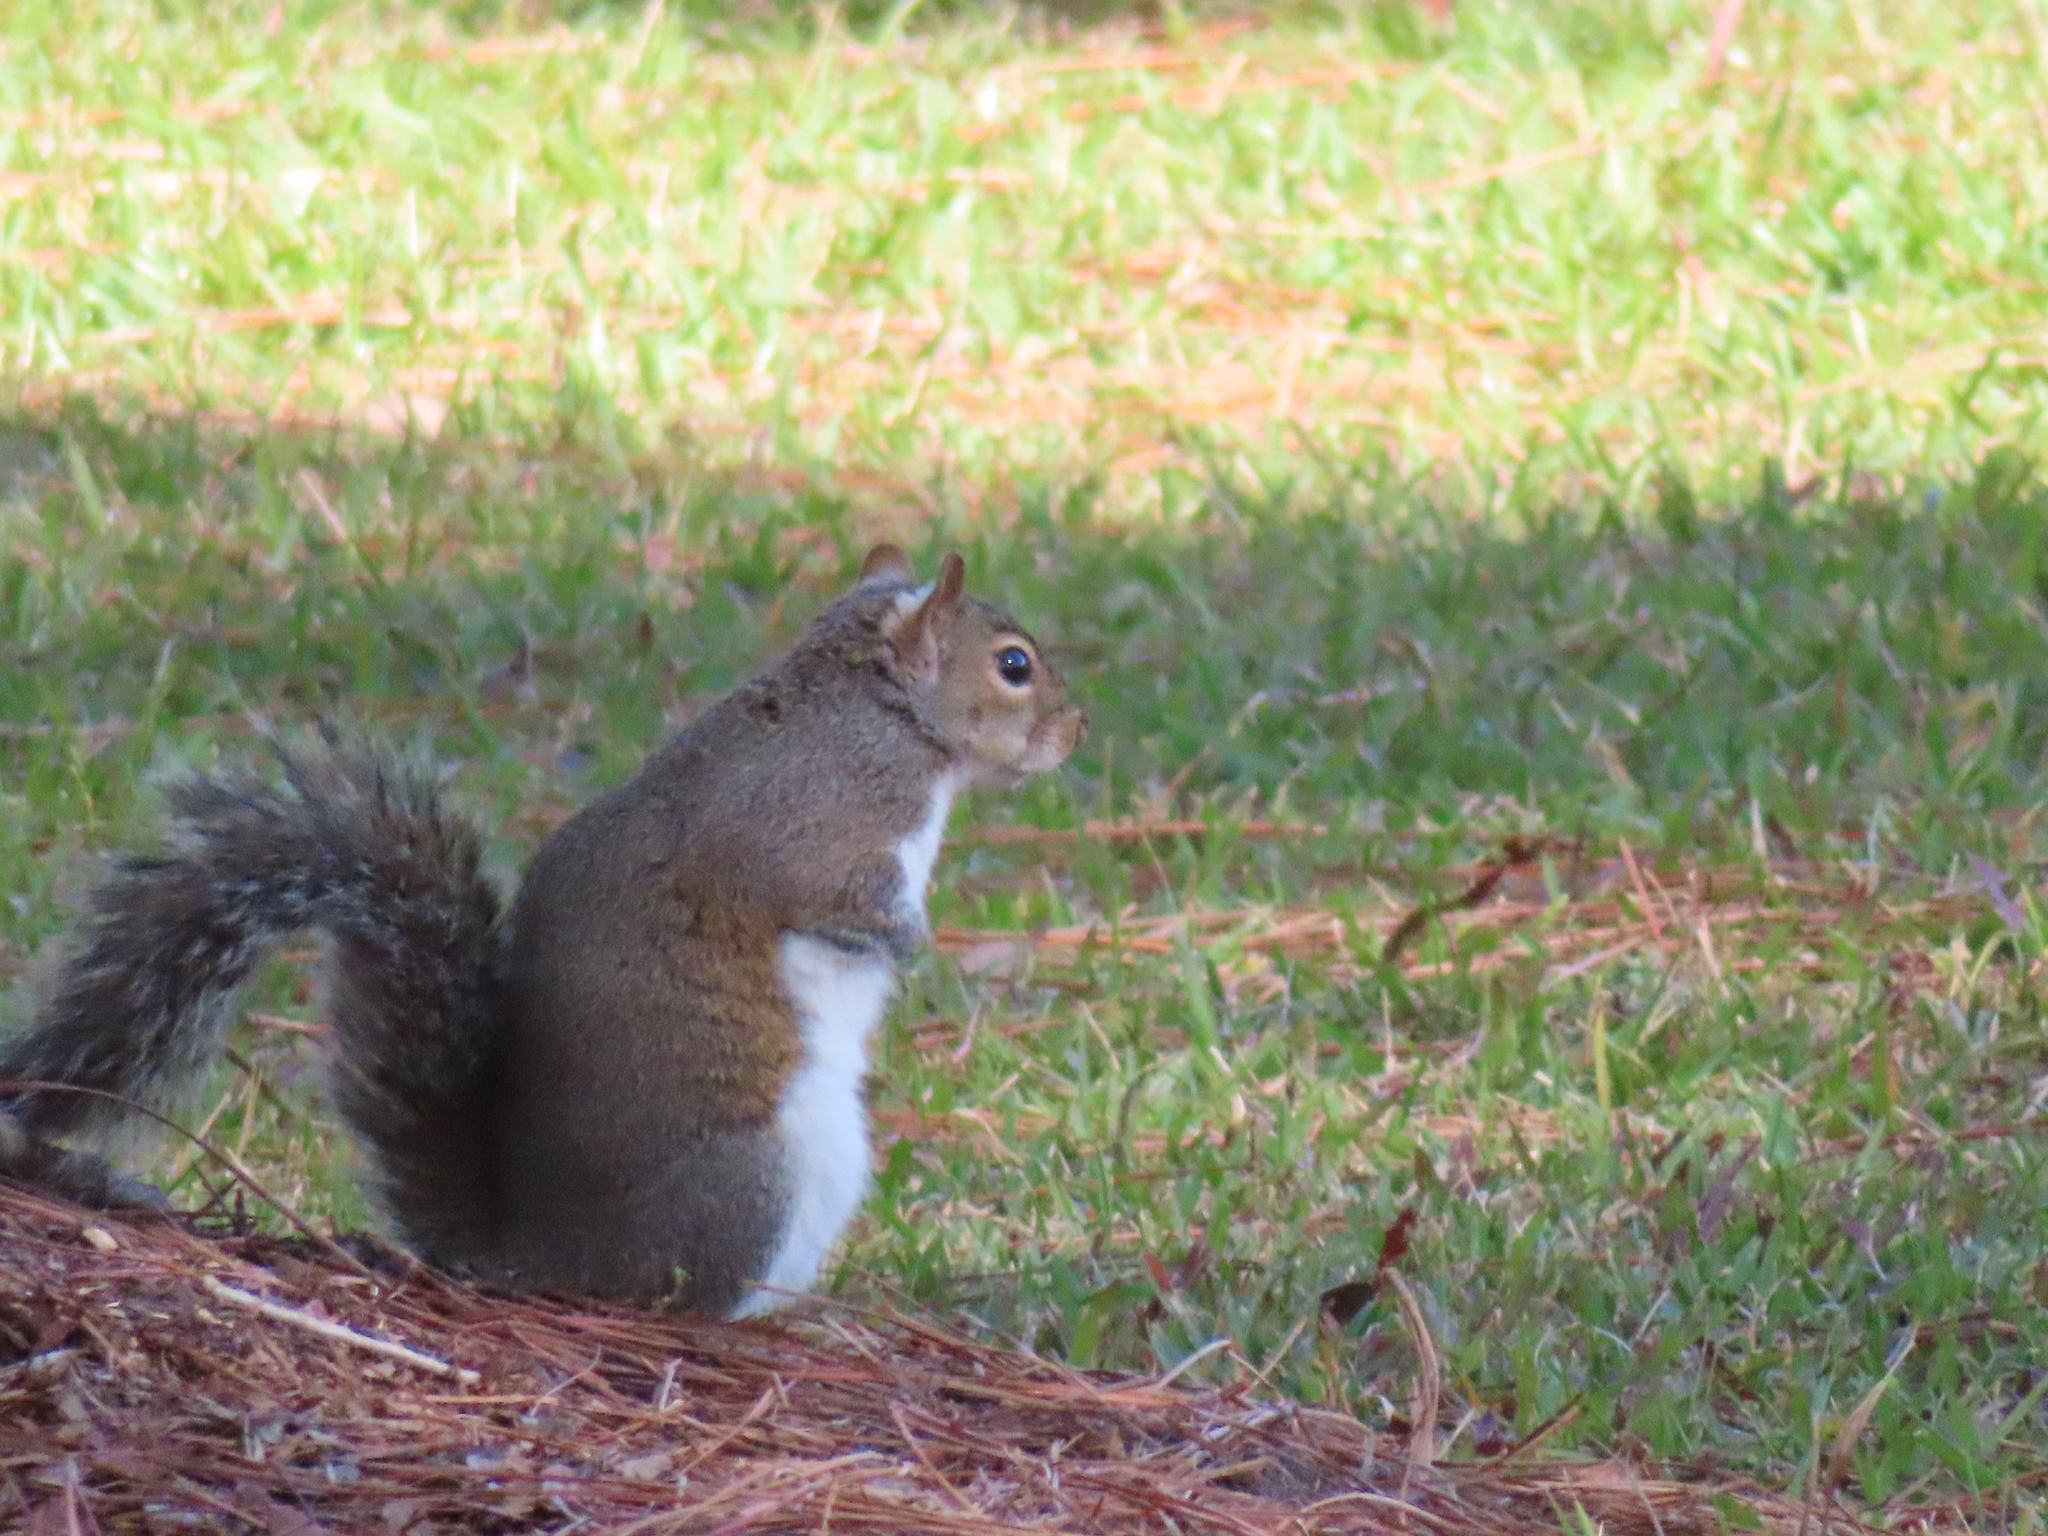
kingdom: Animalia
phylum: Chordata
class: Mammalia
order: Rodentia
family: Sciuridae
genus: Sciurus
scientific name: Sciurus carolinensis
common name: Eastern gray squirrel
